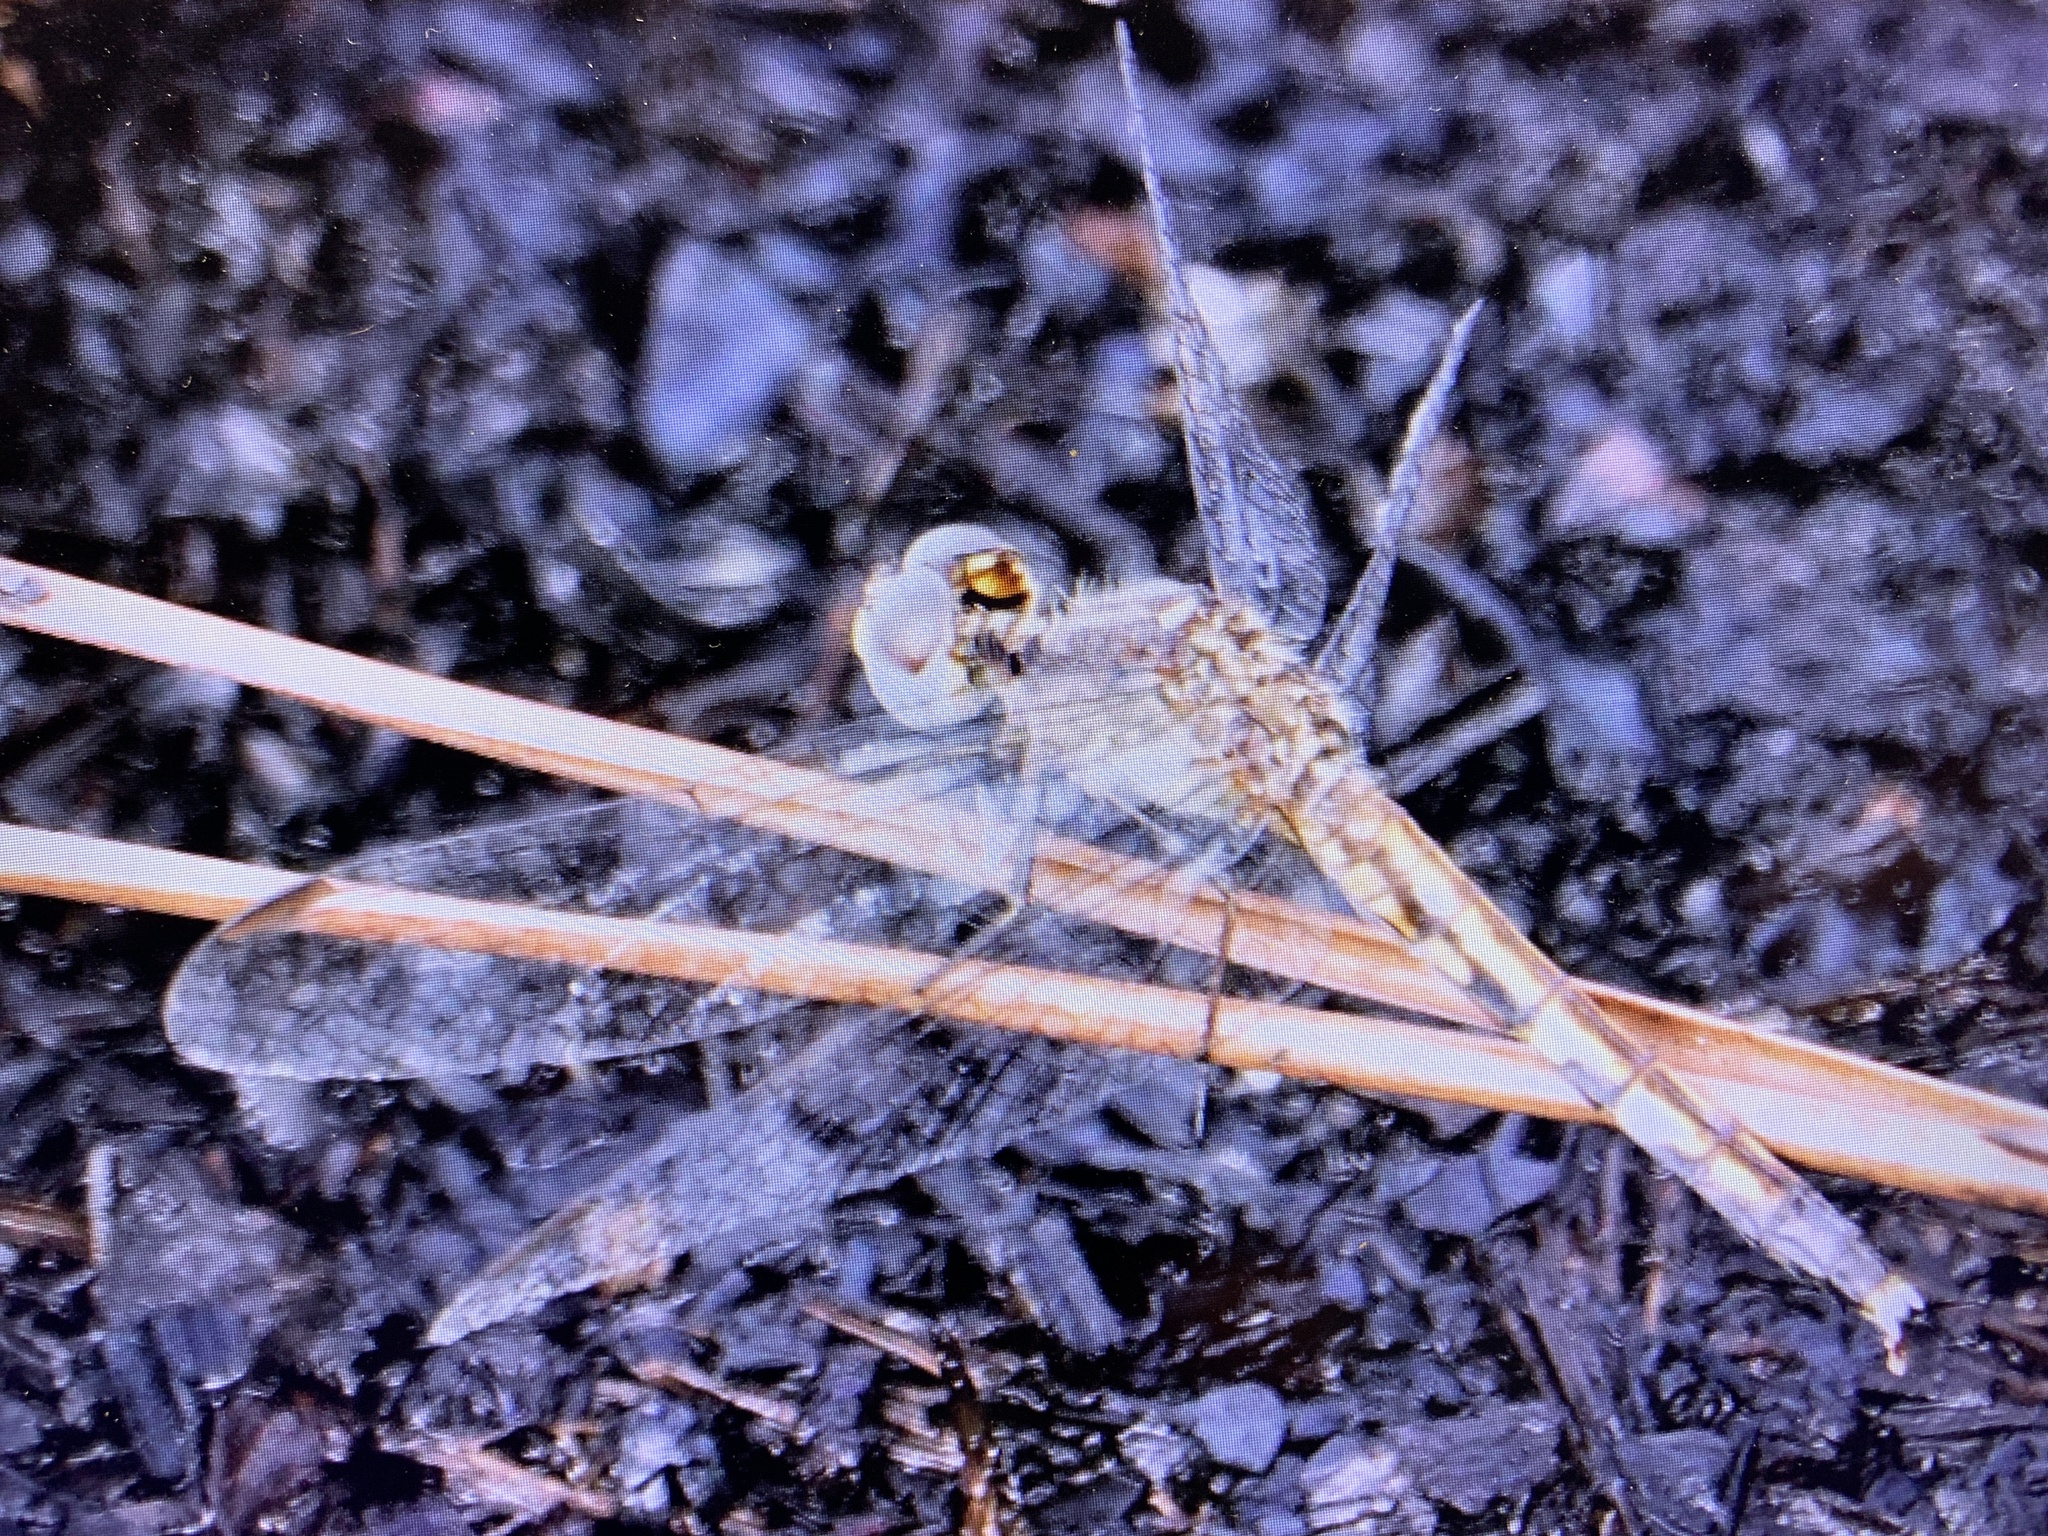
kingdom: Animalia
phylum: Arthropoda
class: Insecta
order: Odonata
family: Libellulidae
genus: Erythrodiplax
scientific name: Erythrodiplax minuscula
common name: Little blue dragonlet
